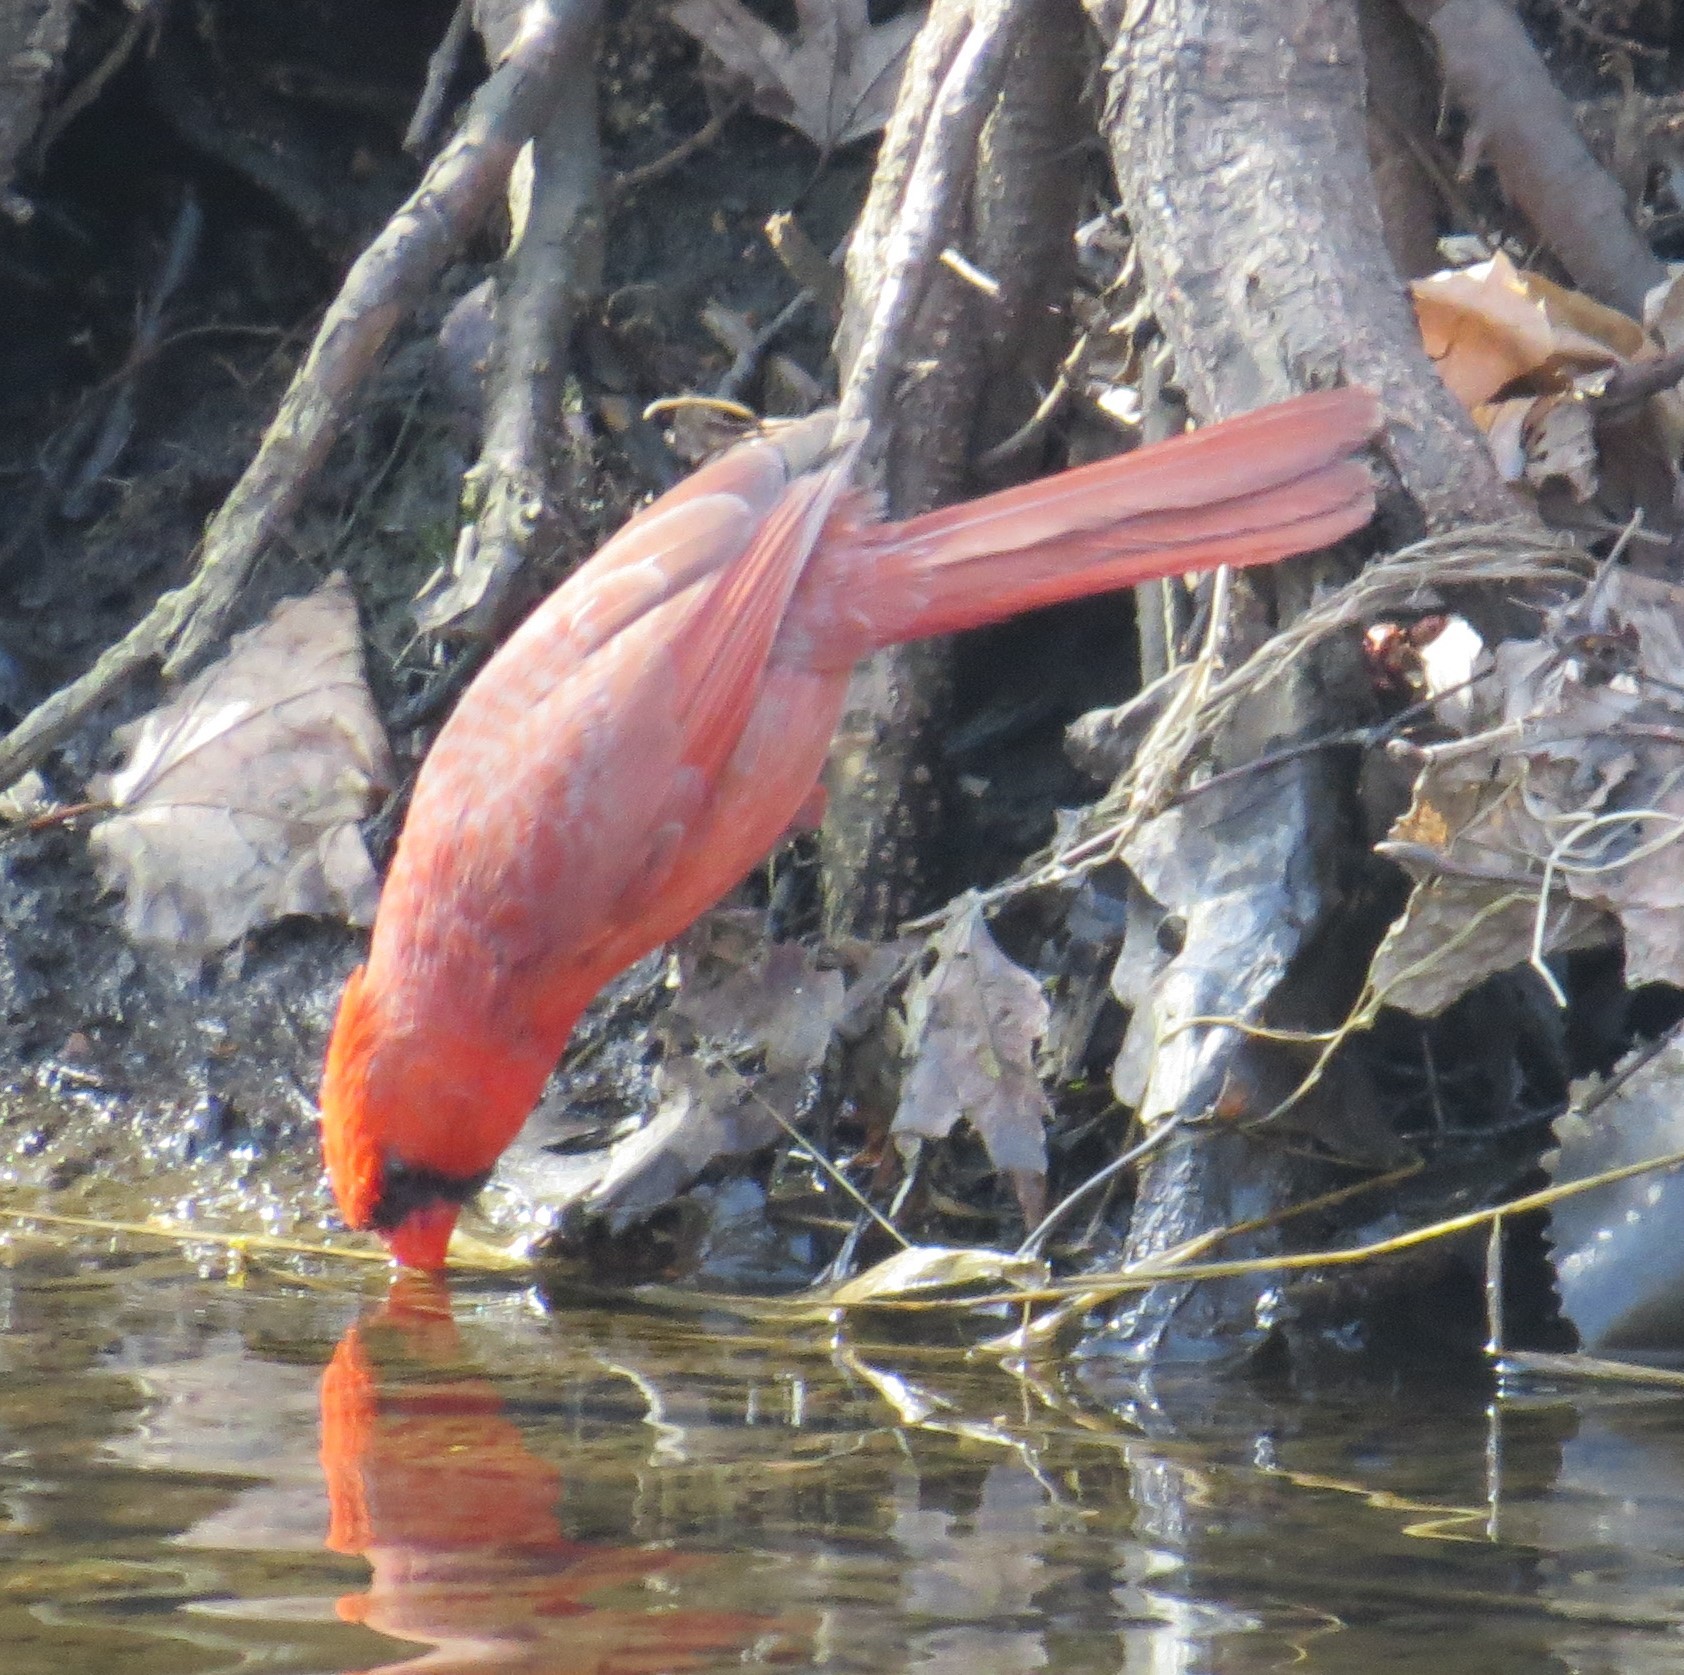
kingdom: Animalia
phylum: Chordata
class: Aves
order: Passeriformes
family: Cardinalidae
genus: Cardinalis
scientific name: Cardinalis cardinalis
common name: Northern cardinal
